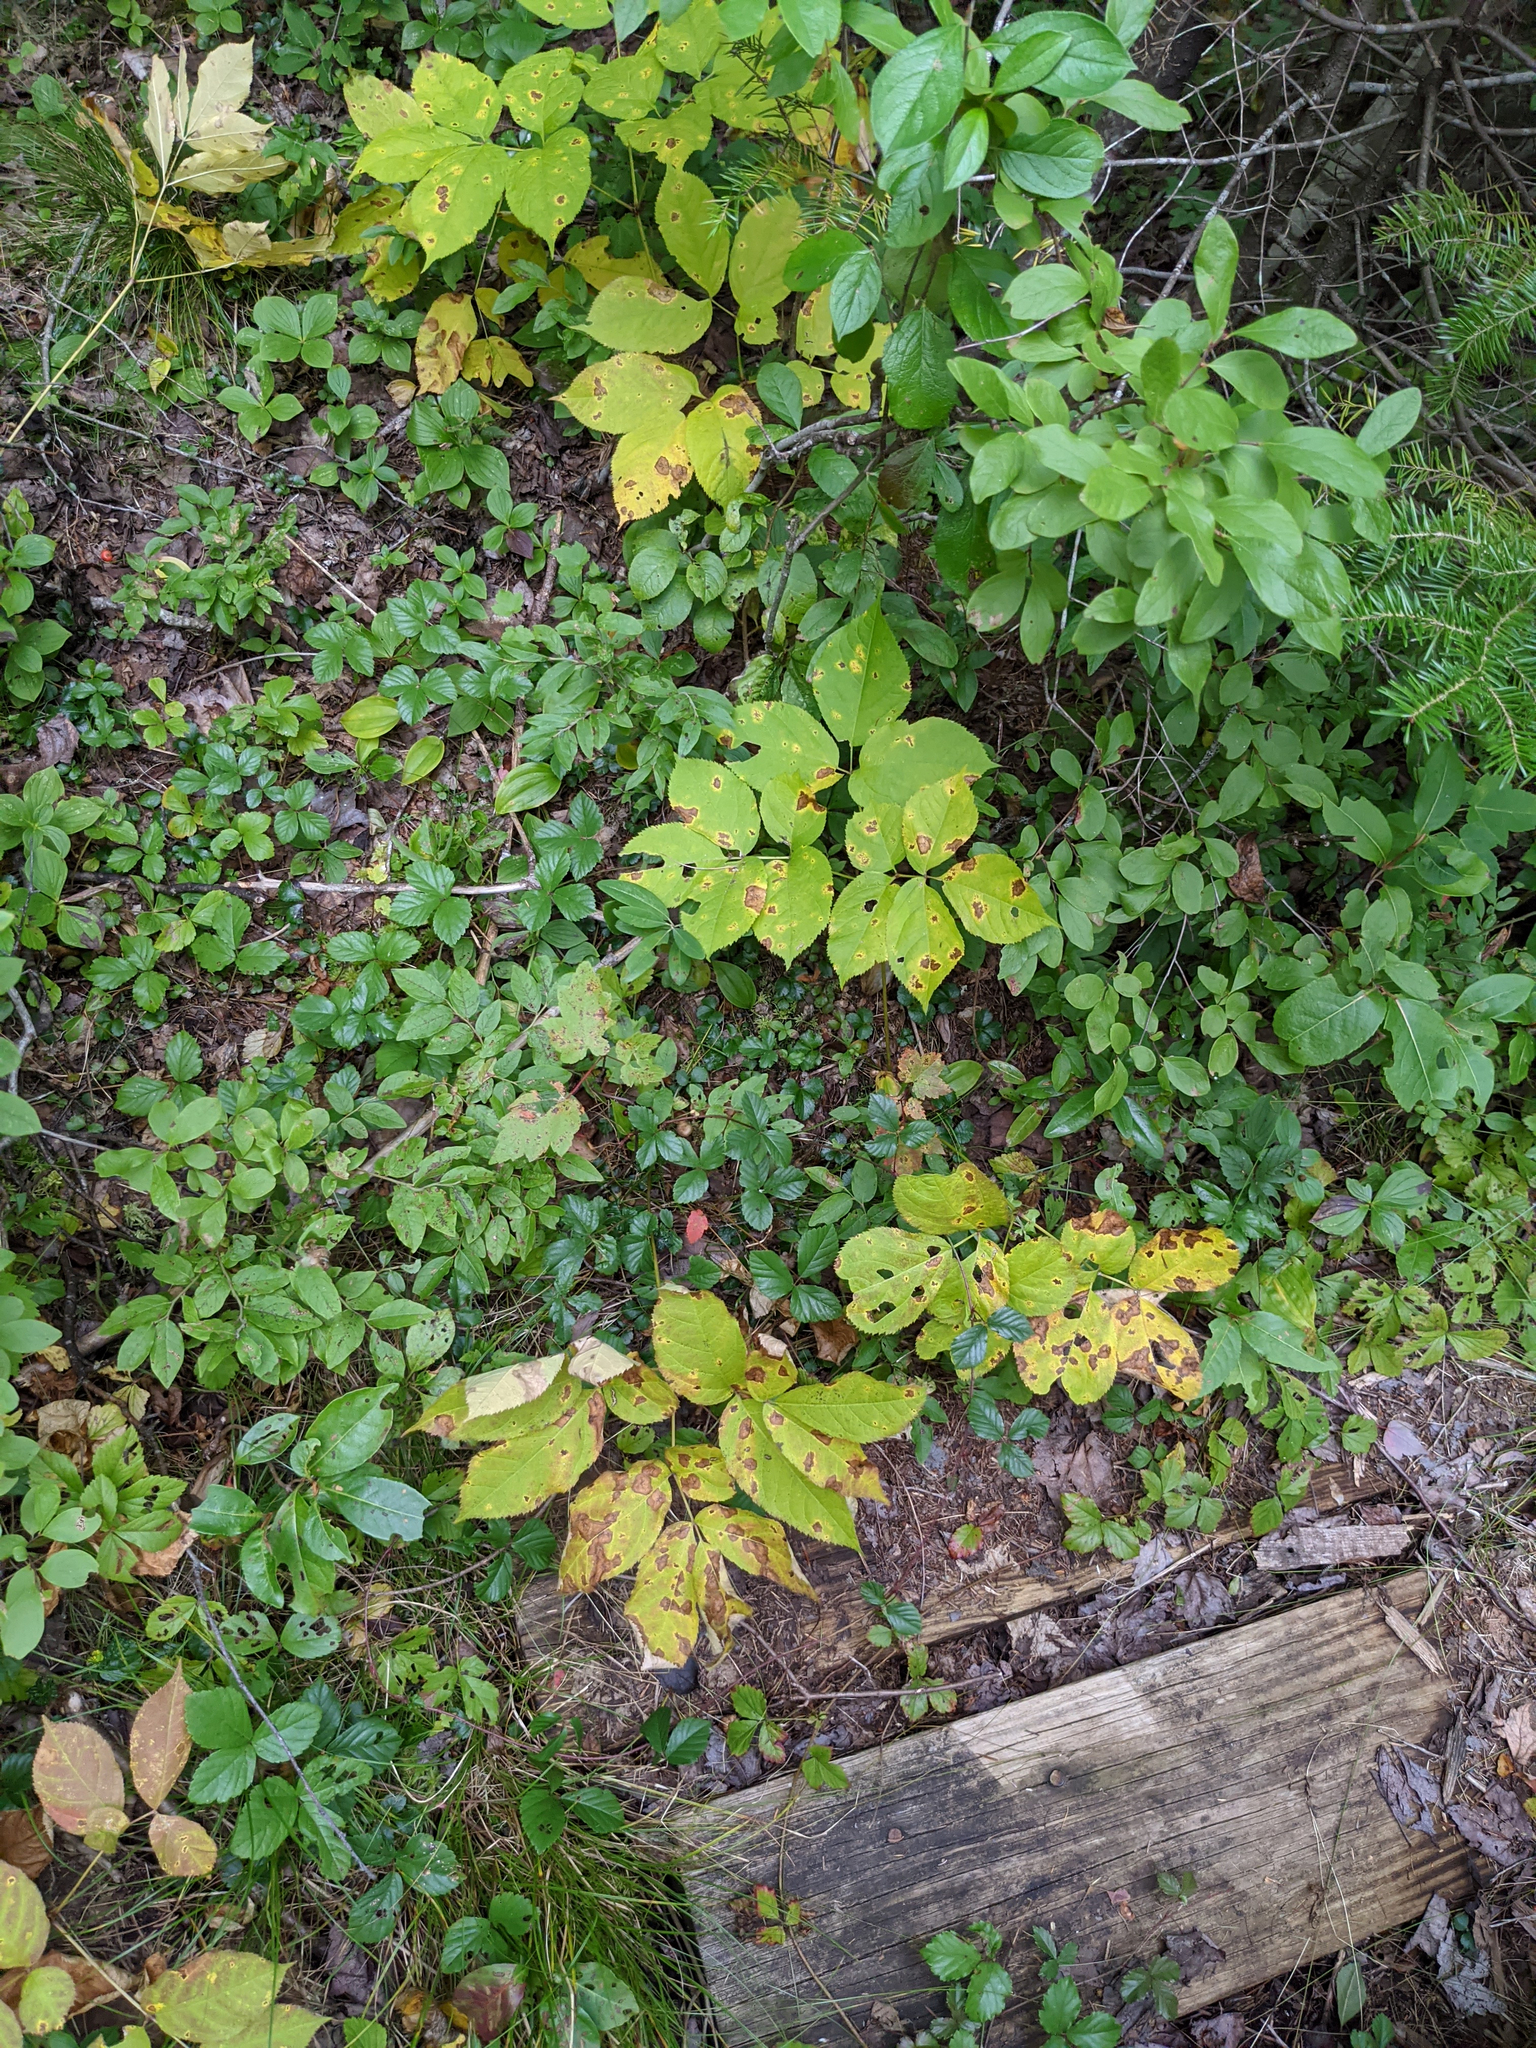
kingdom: Plantae
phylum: Tracheophyta
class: Magnoliopsida
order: Apiales
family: Araliaceae
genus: Aralia
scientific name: Aralia nudicaulis
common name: Wild sarsaparilla
